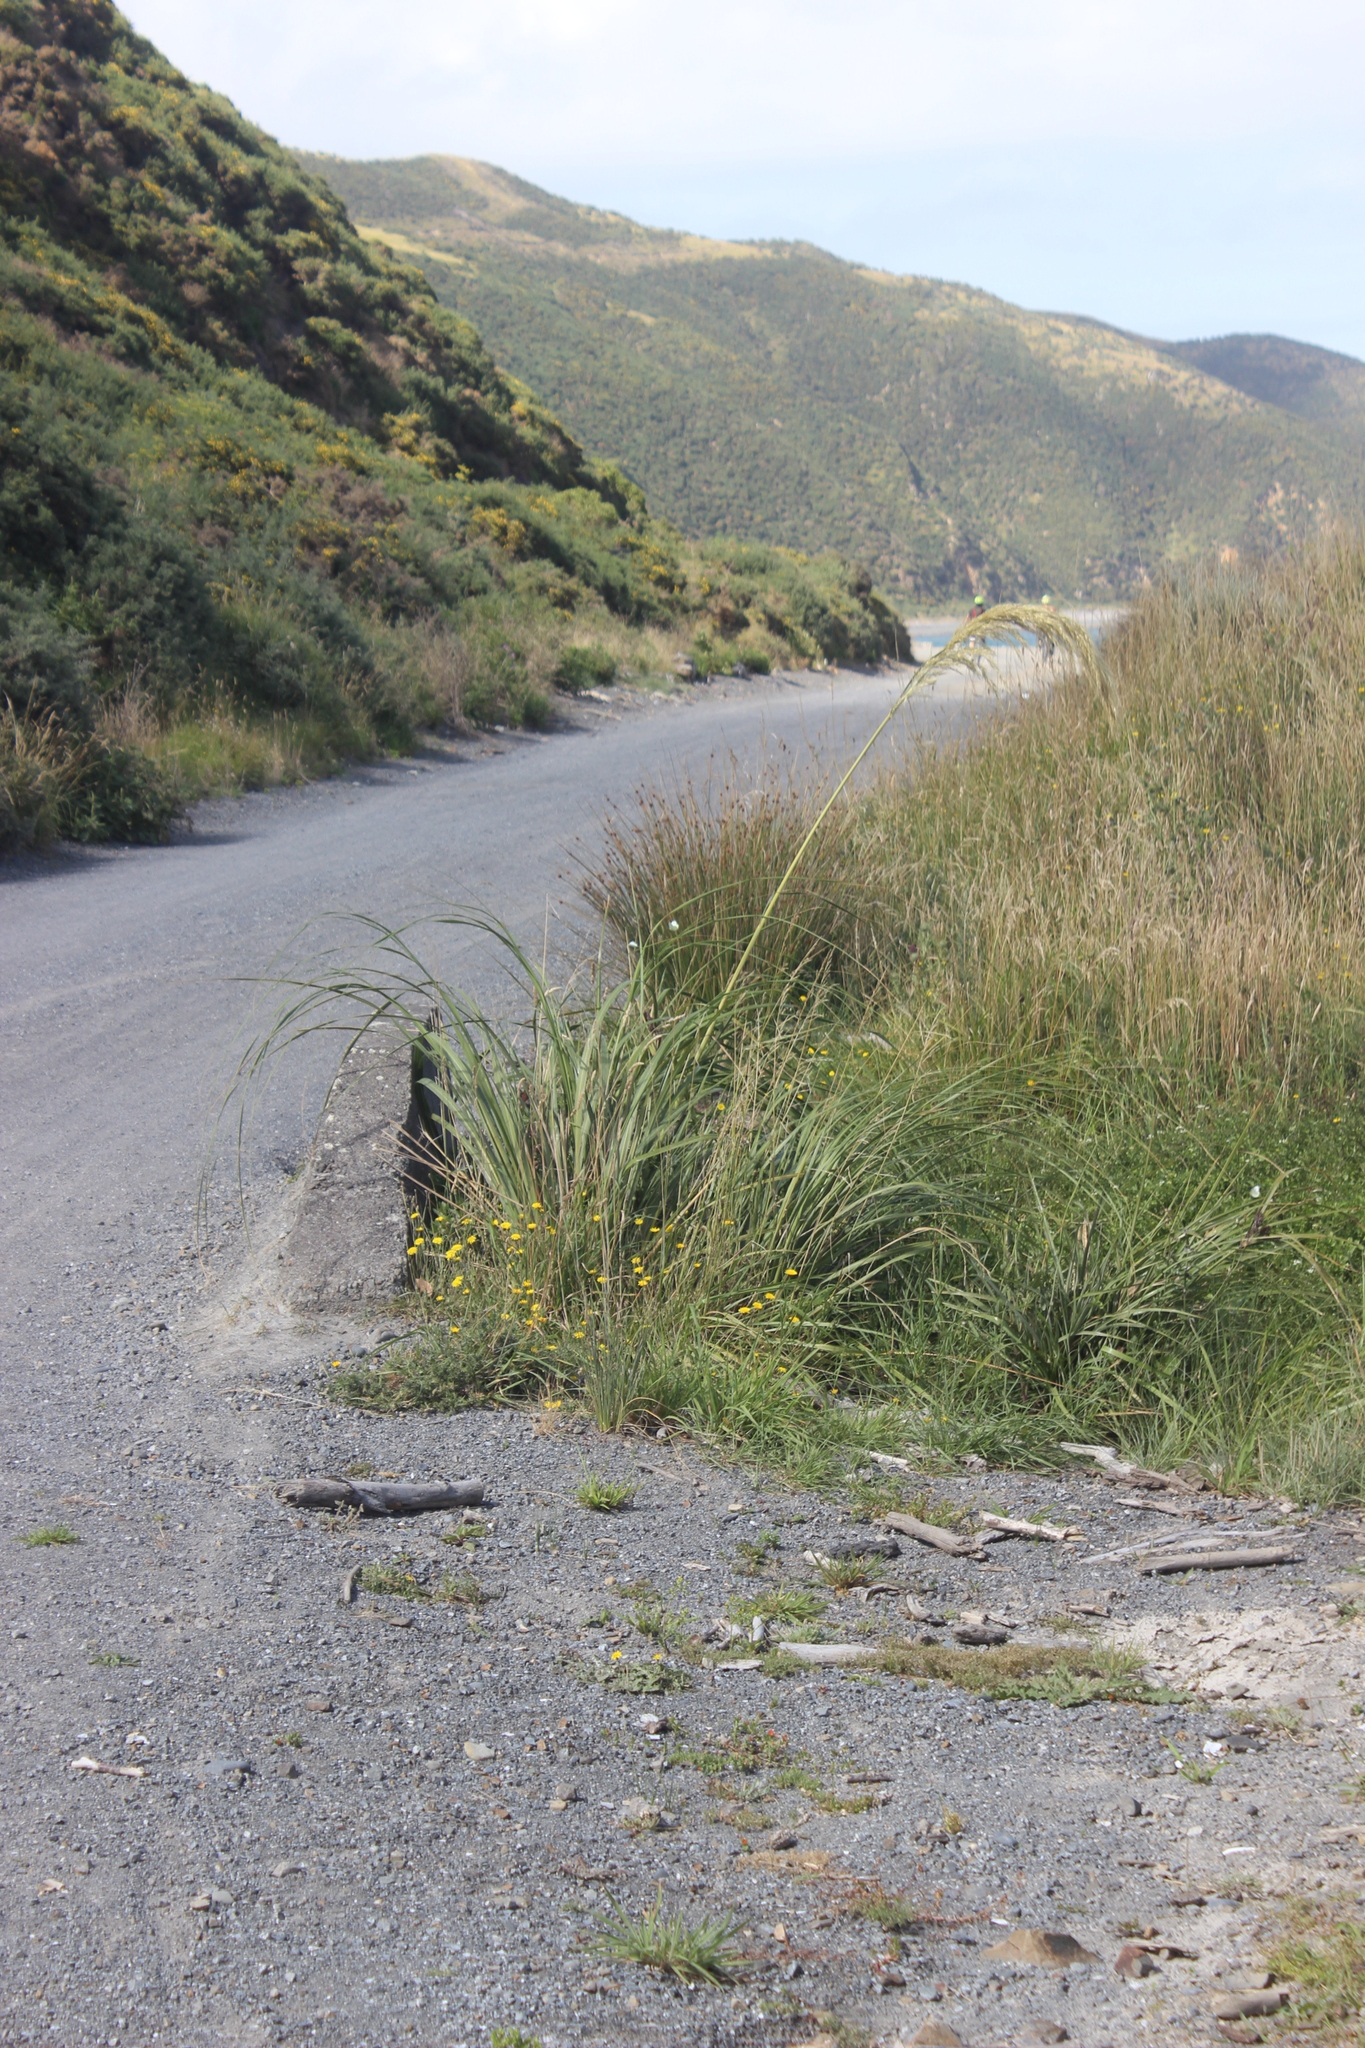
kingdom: Plantae
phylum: Tracheophyta
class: Liliopsida
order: Poales
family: Poaceae
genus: Austroderia
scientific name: Austroderia toetoe
